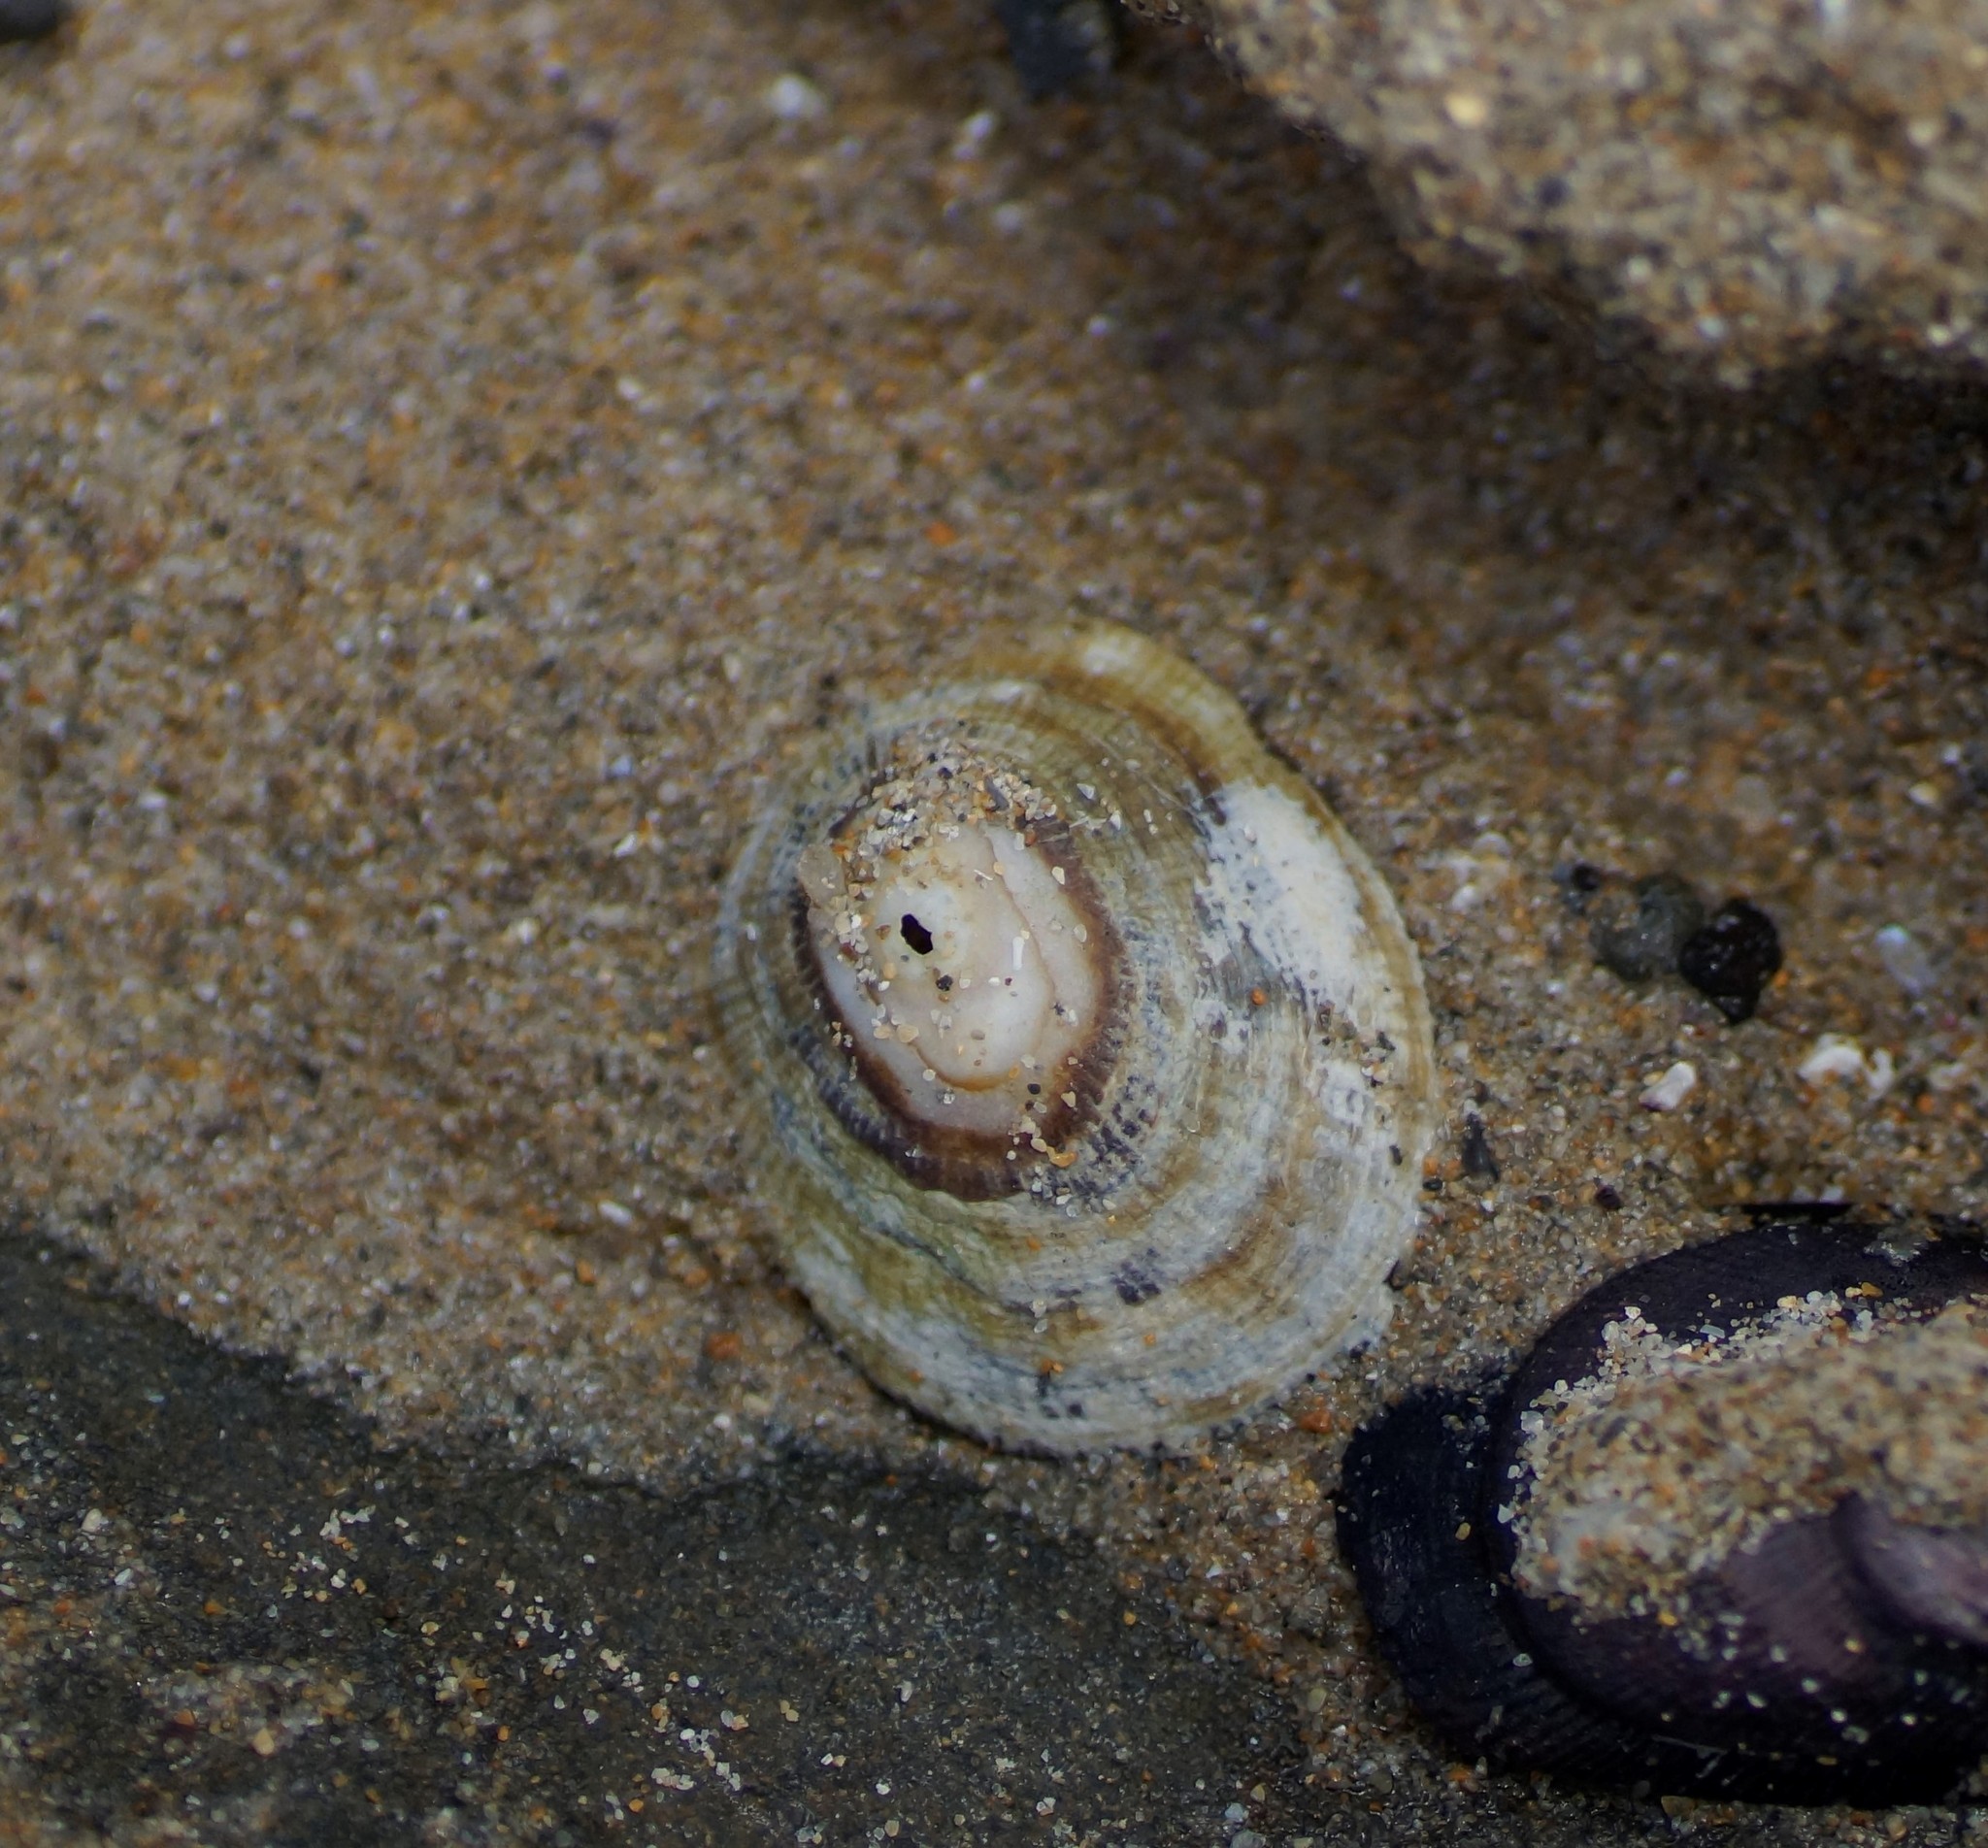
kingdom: Animalia
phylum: Mollusca
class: Gastropoda
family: Patellidae
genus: Scutellastra
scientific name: Scutellastra peronii
